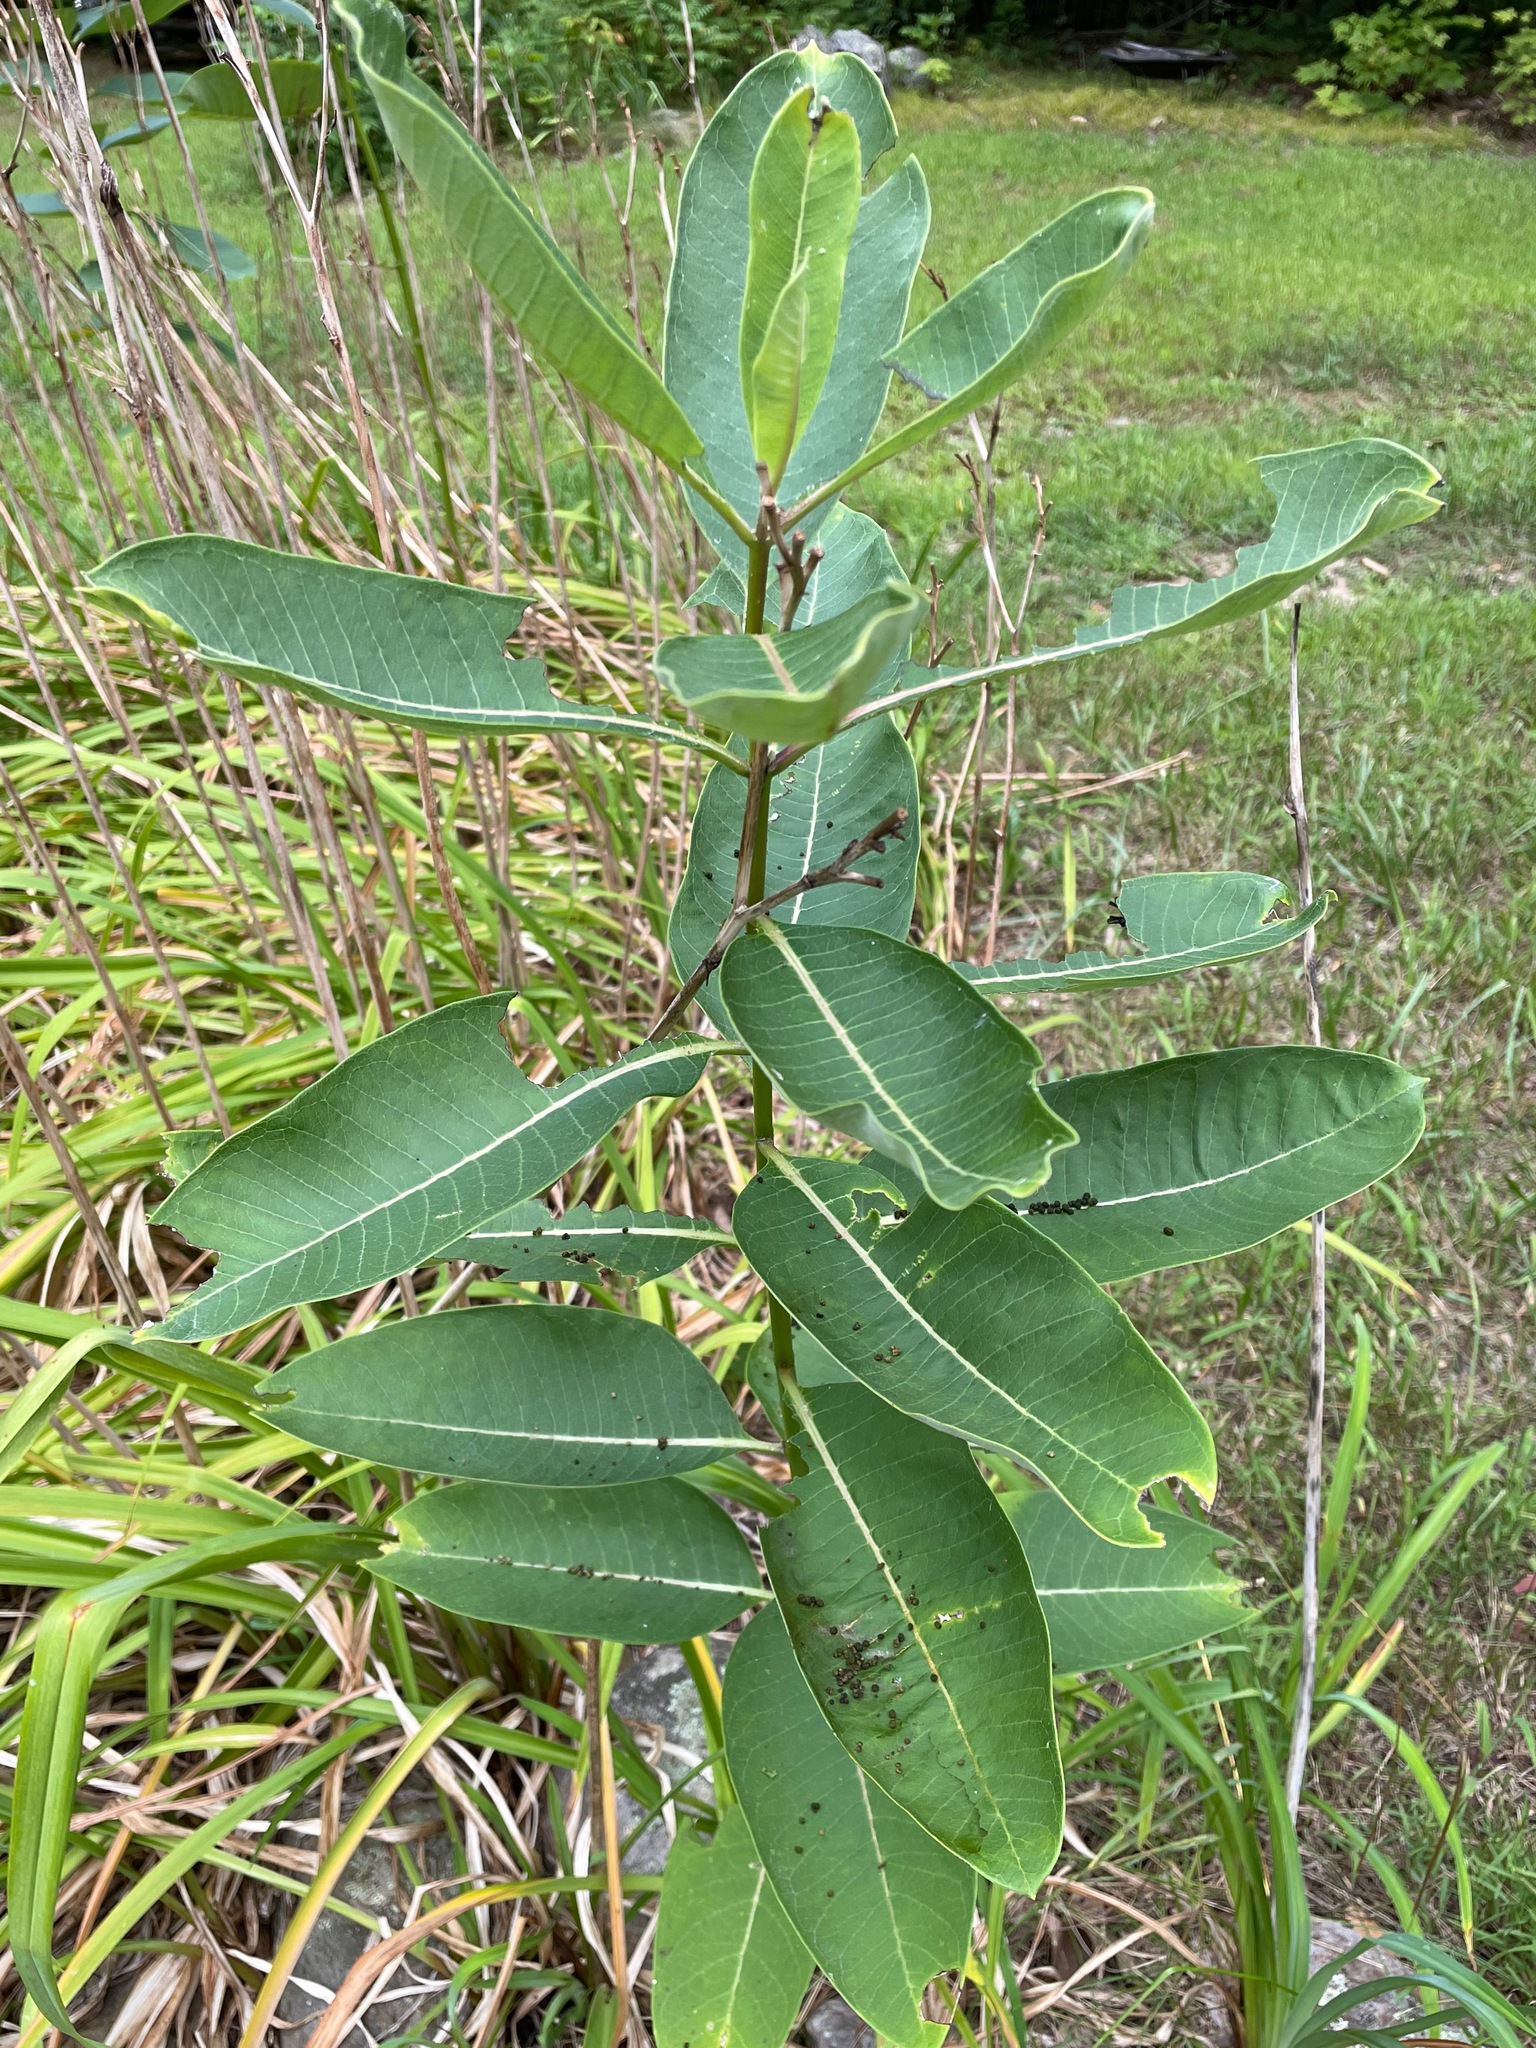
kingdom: Plantae
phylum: Tracheophyta
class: Magnoliopsida
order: Gentianales
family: Apocynaceae
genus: Asclepias
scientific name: Asclepias syriaca
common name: Common milkweed
